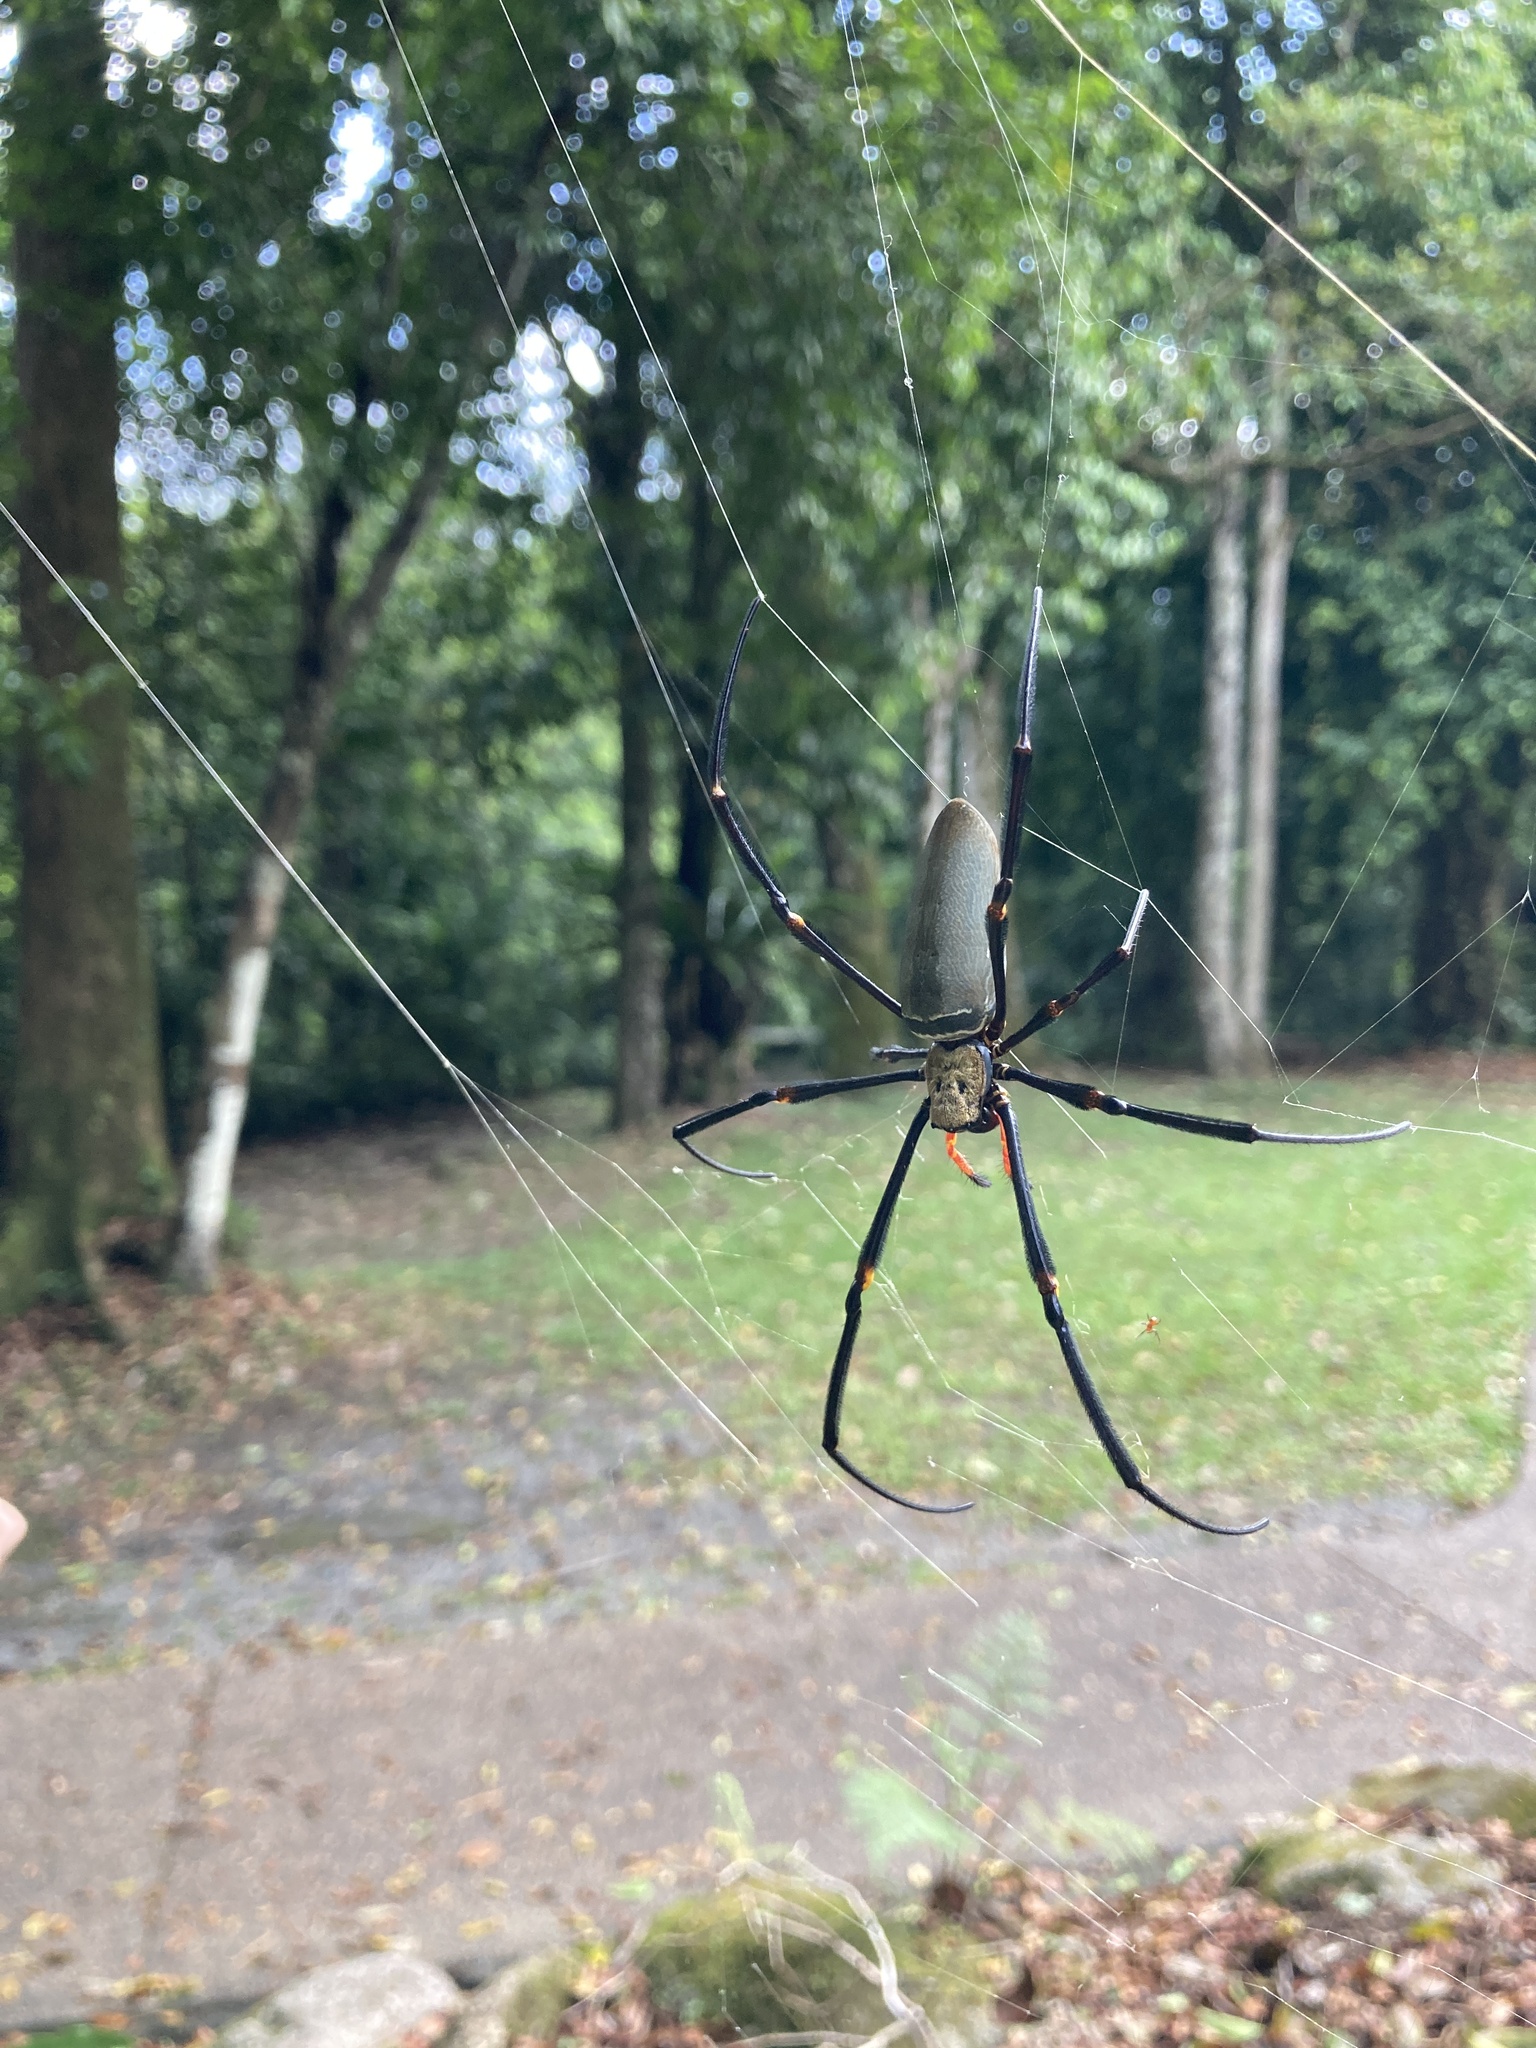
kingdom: Animalia
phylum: Arthropoda
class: Arachnida
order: Araneae
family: Araneidae
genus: Nephila
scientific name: Nephila pilipes
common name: Giant golden orb weaver
